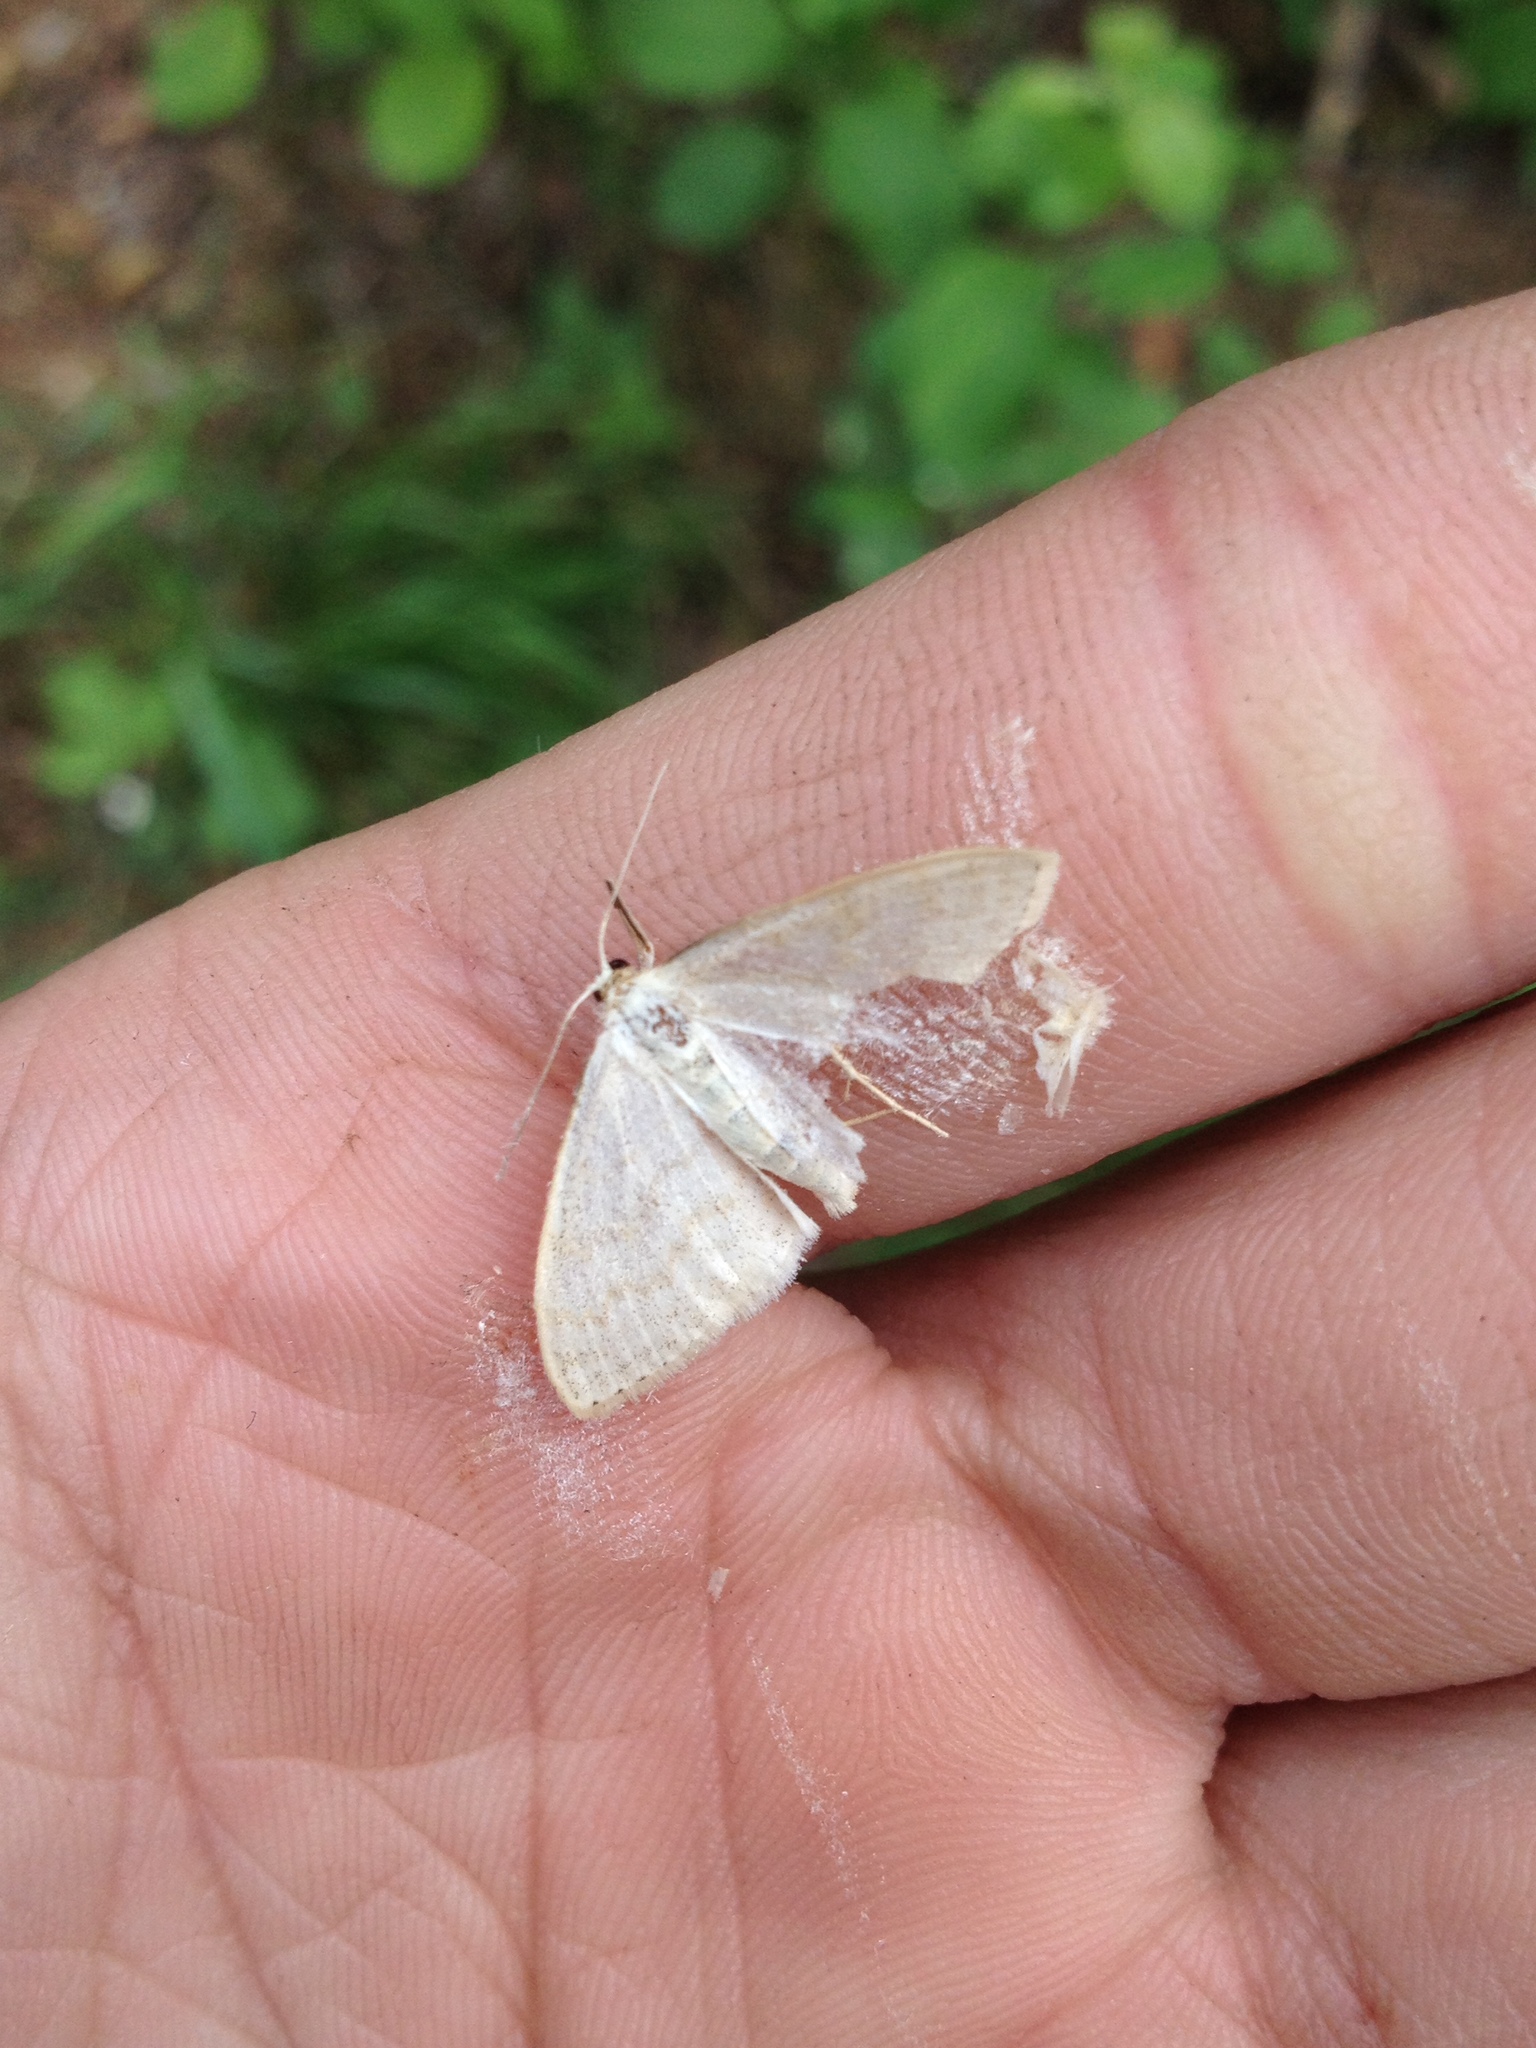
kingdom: Animalia
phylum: Arthropoda
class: Insecta
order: Lepidoptera
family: Geometridae
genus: Scopula
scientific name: Scopula floslactata
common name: Cream wave
